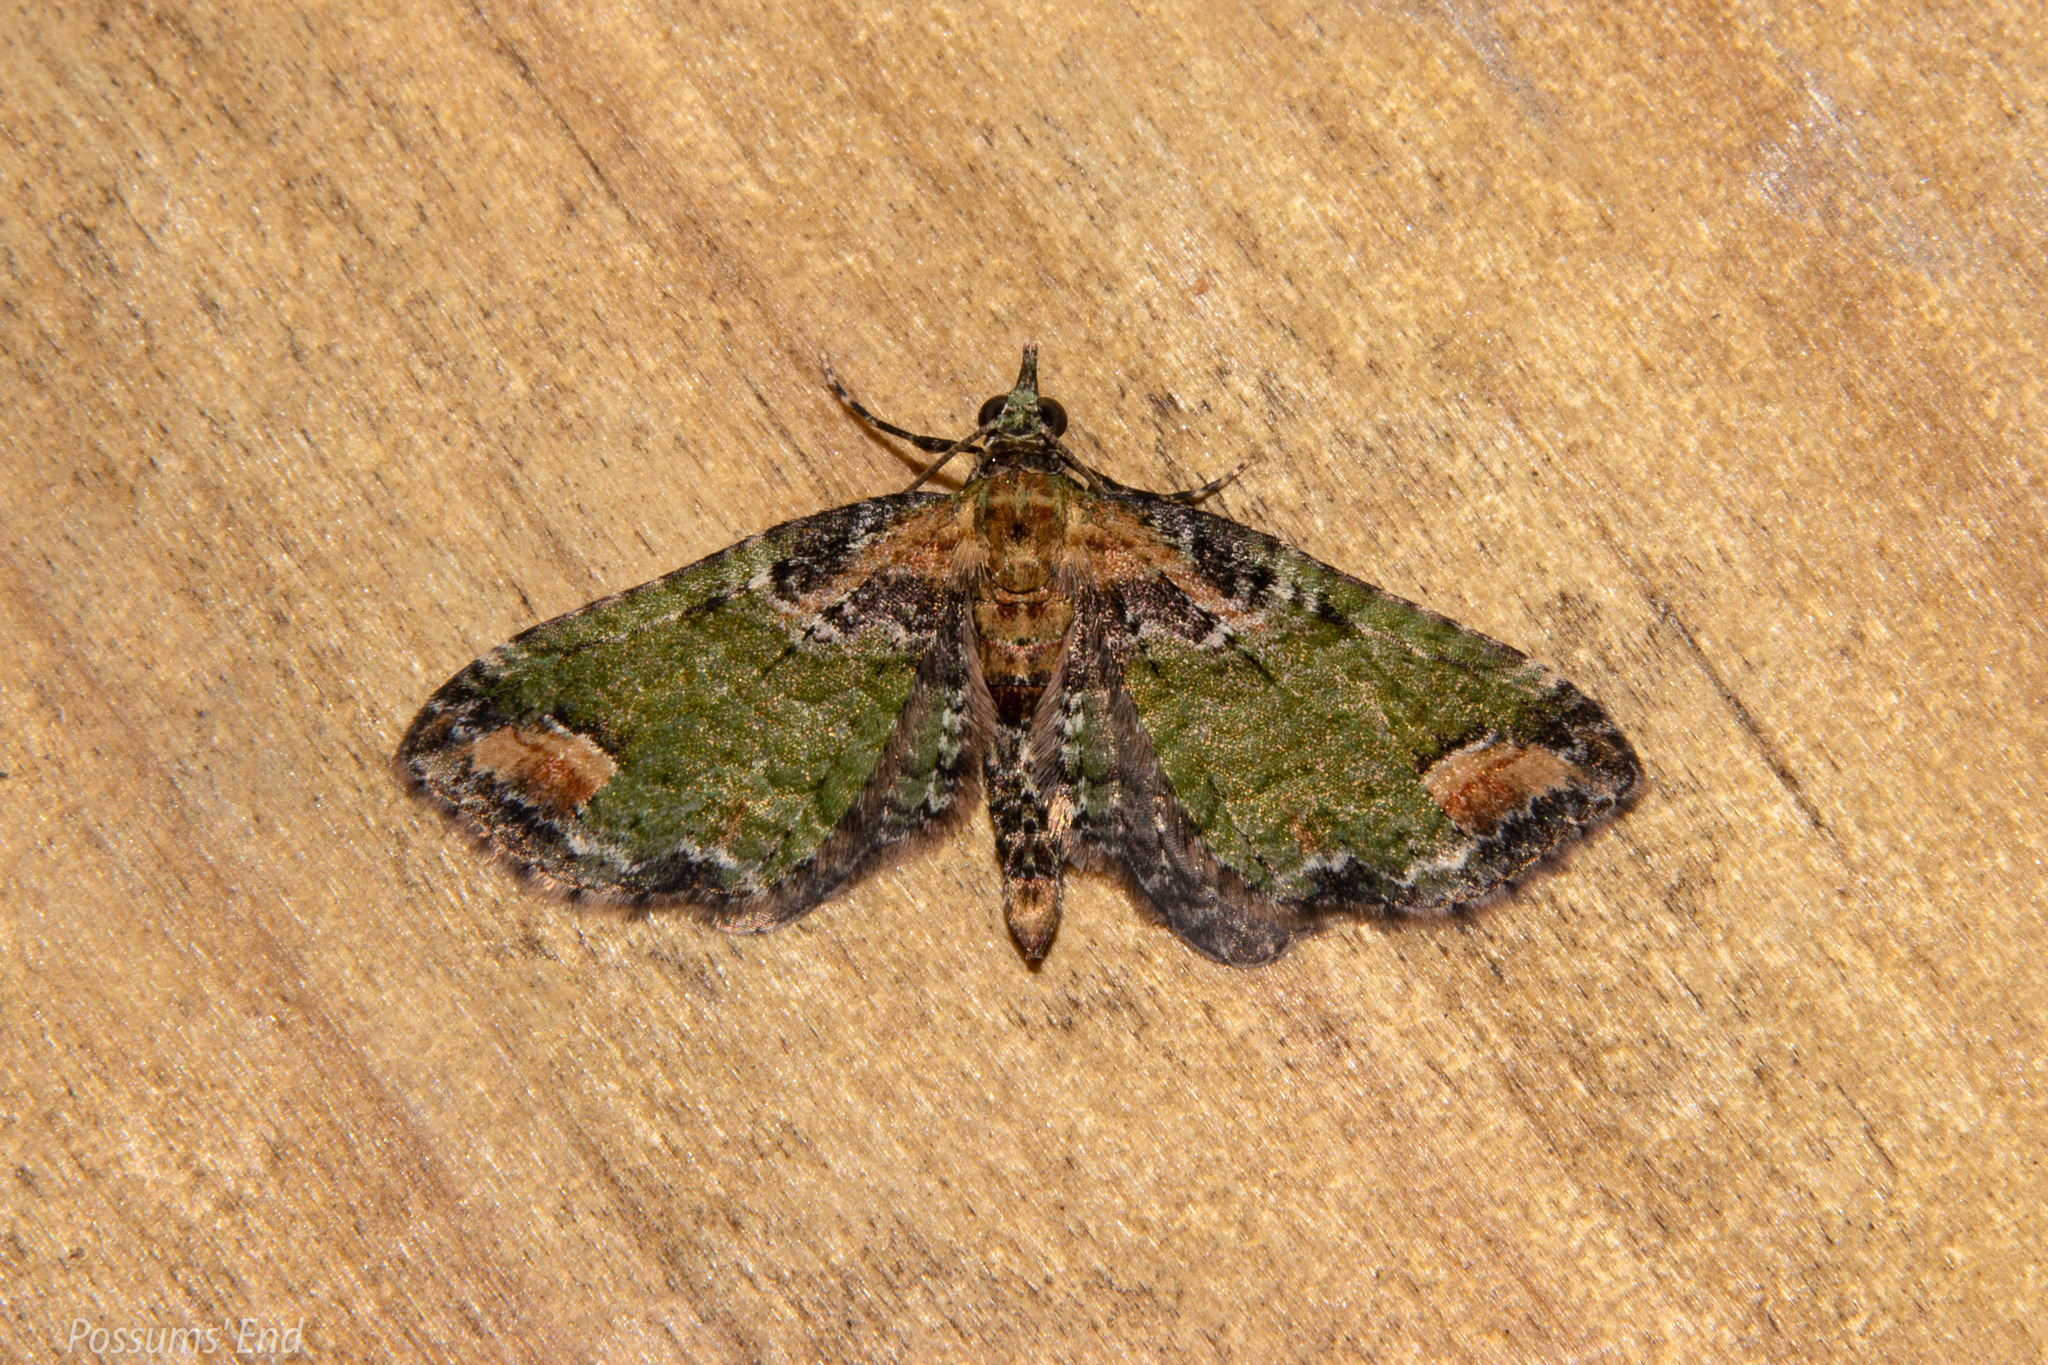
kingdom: Animalia
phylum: Arthropoda
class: Insecta
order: Lepidoptera
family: Geometridae
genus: Idaea
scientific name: Idaea mutanda
